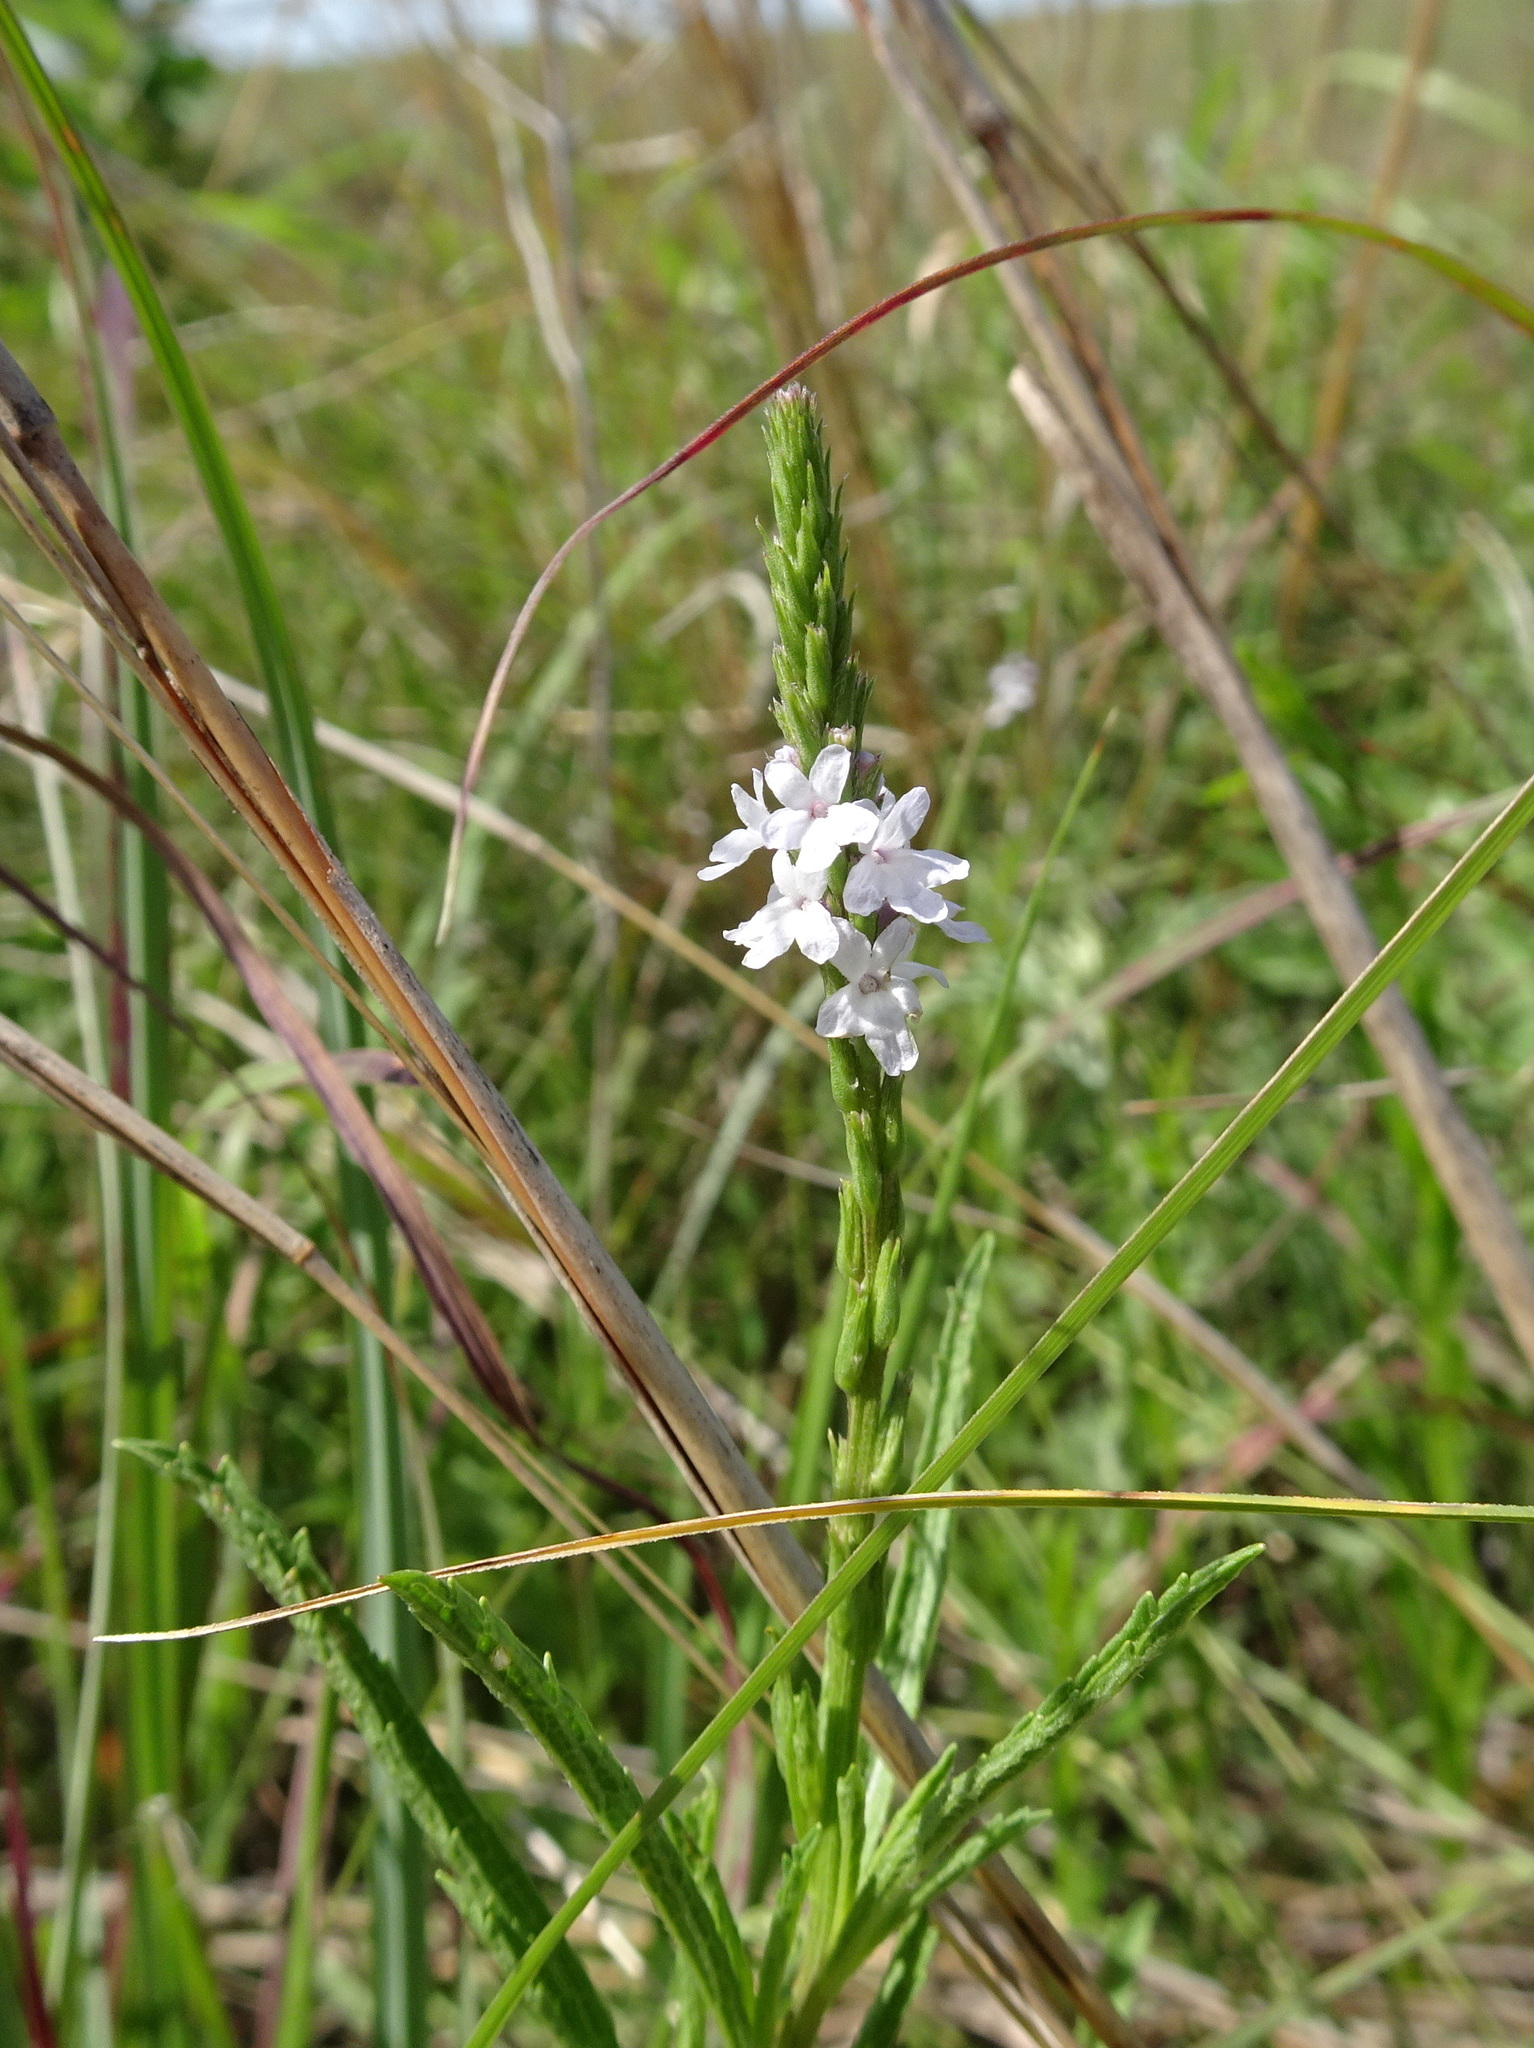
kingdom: Plantae
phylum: Tracheophyta
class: Magnoliopsida
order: Lamiales
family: Verbenaceae
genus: Verbena
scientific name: Verbena simplex
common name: Narrow-leaf vervain
